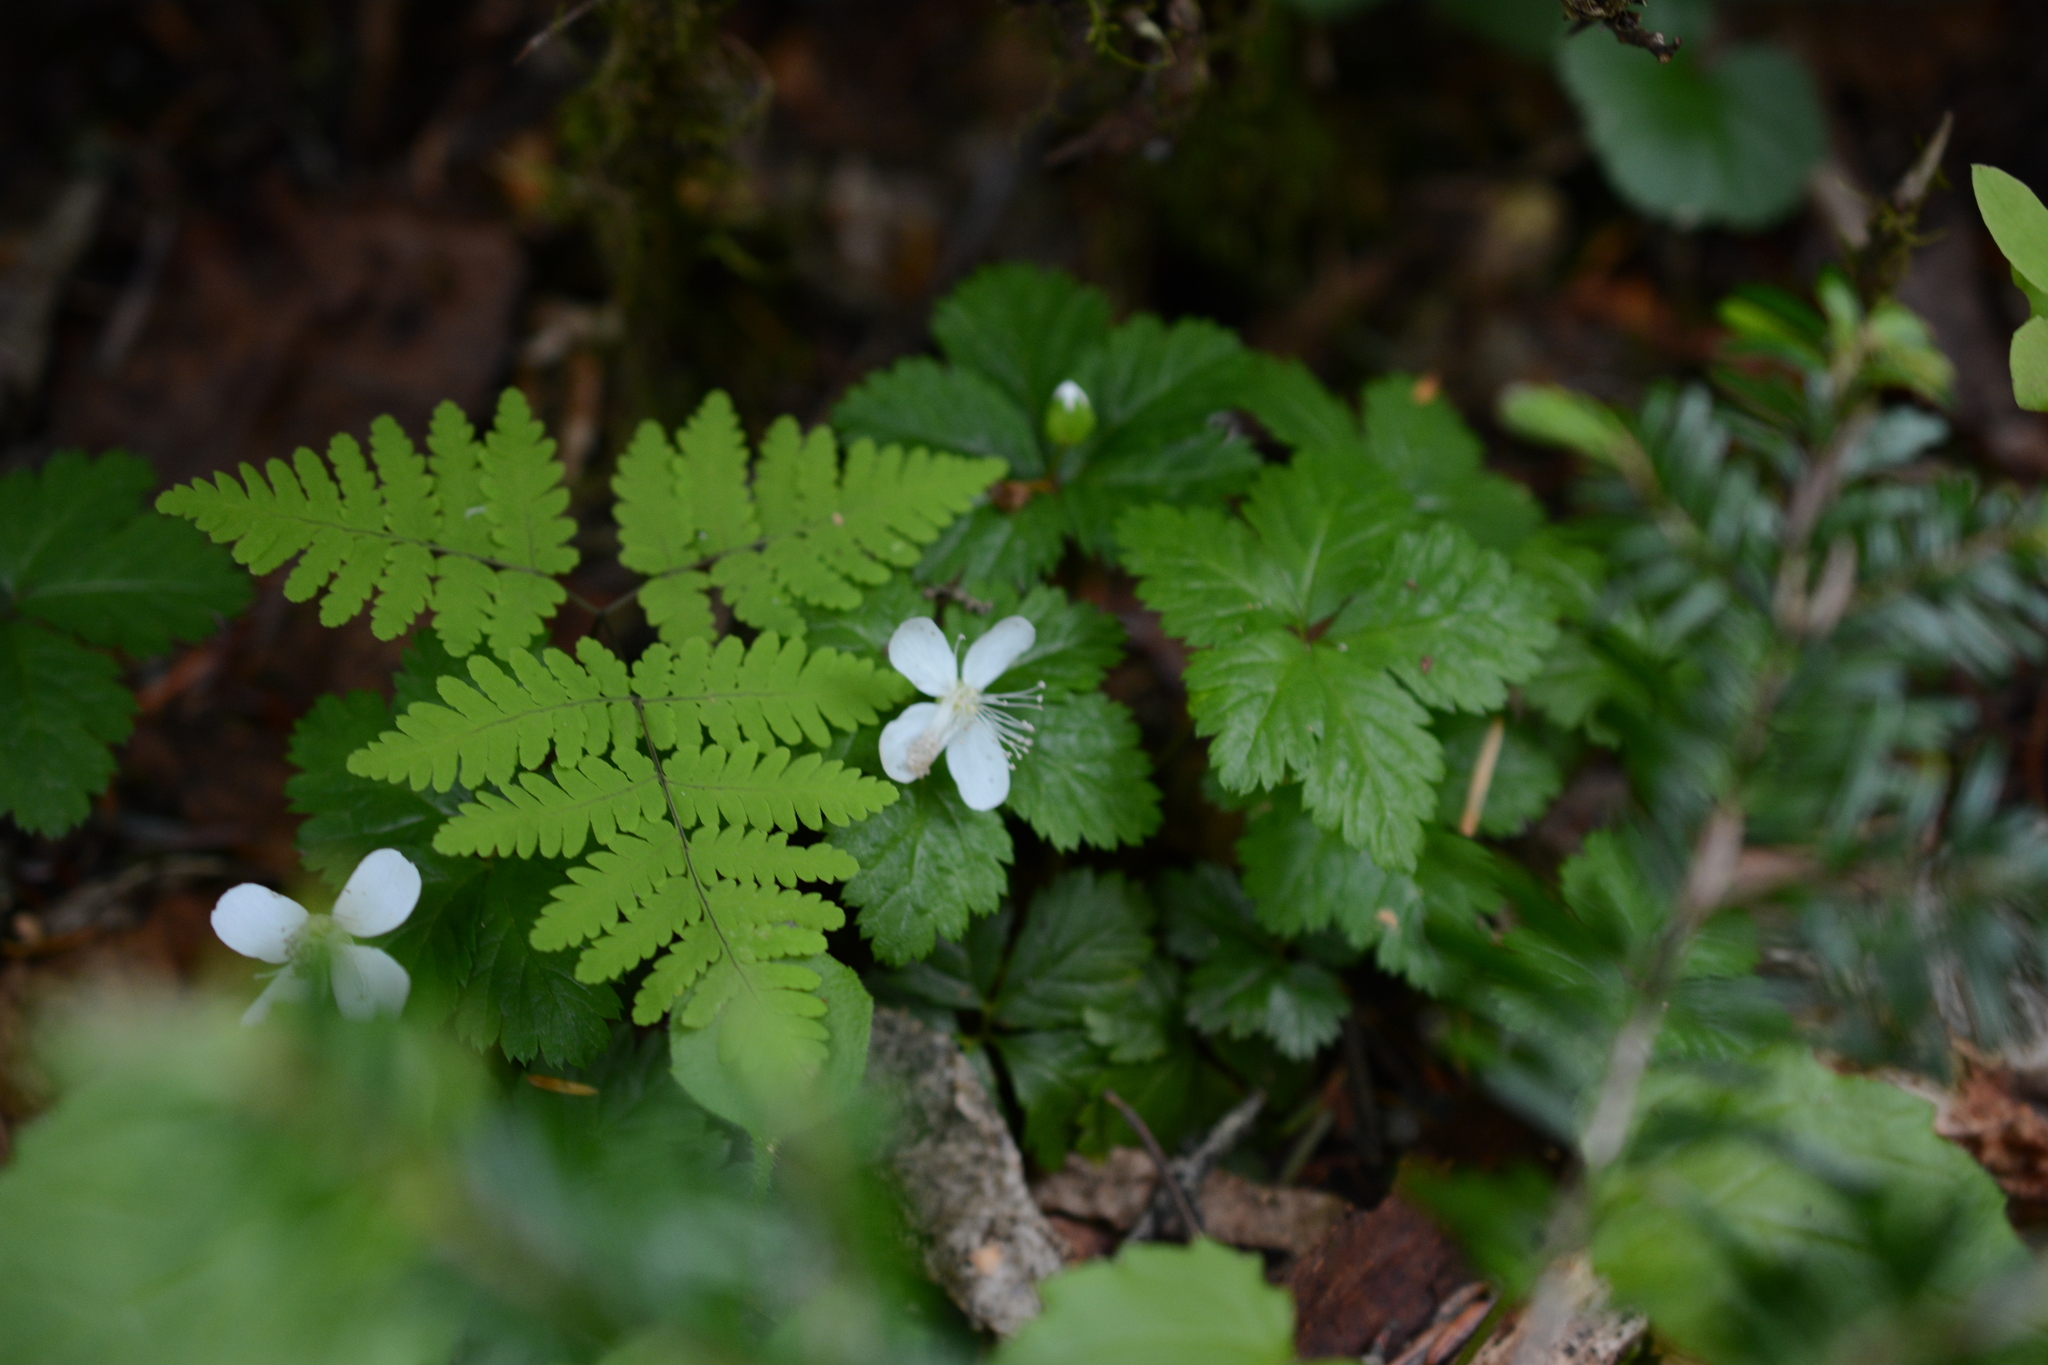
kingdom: Plantae
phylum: Tracheophyta
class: Magnoliopsida
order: Rosales
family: Rosaceae
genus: Rubus
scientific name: Rubus pedatus
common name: Creeping raspberry
